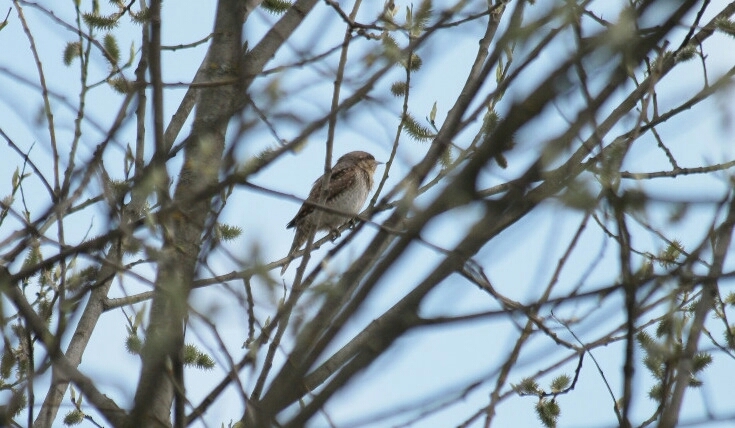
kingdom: Animalia
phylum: Chordata
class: Aves
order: Piciformes
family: Picidae
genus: Jynx
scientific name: Jynx torquilla
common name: Eurasian wryneck
